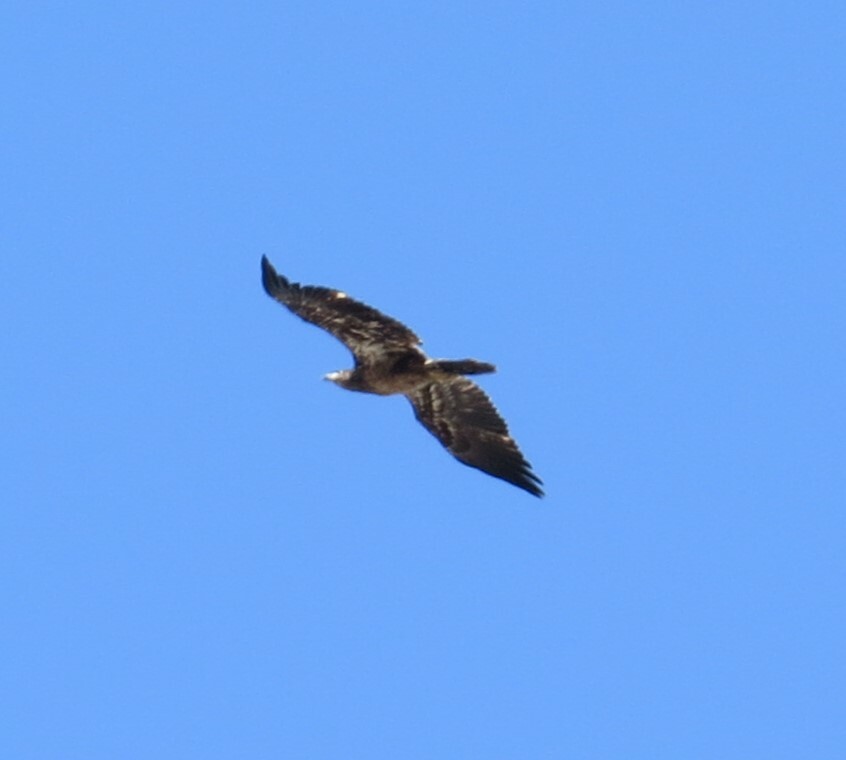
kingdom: Animalia
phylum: Chordata
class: Aves
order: Accipitriformes
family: Accipitridae
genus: Haliaeetus
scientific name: Haliaeetus leucocephalus
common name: Bald eagle
